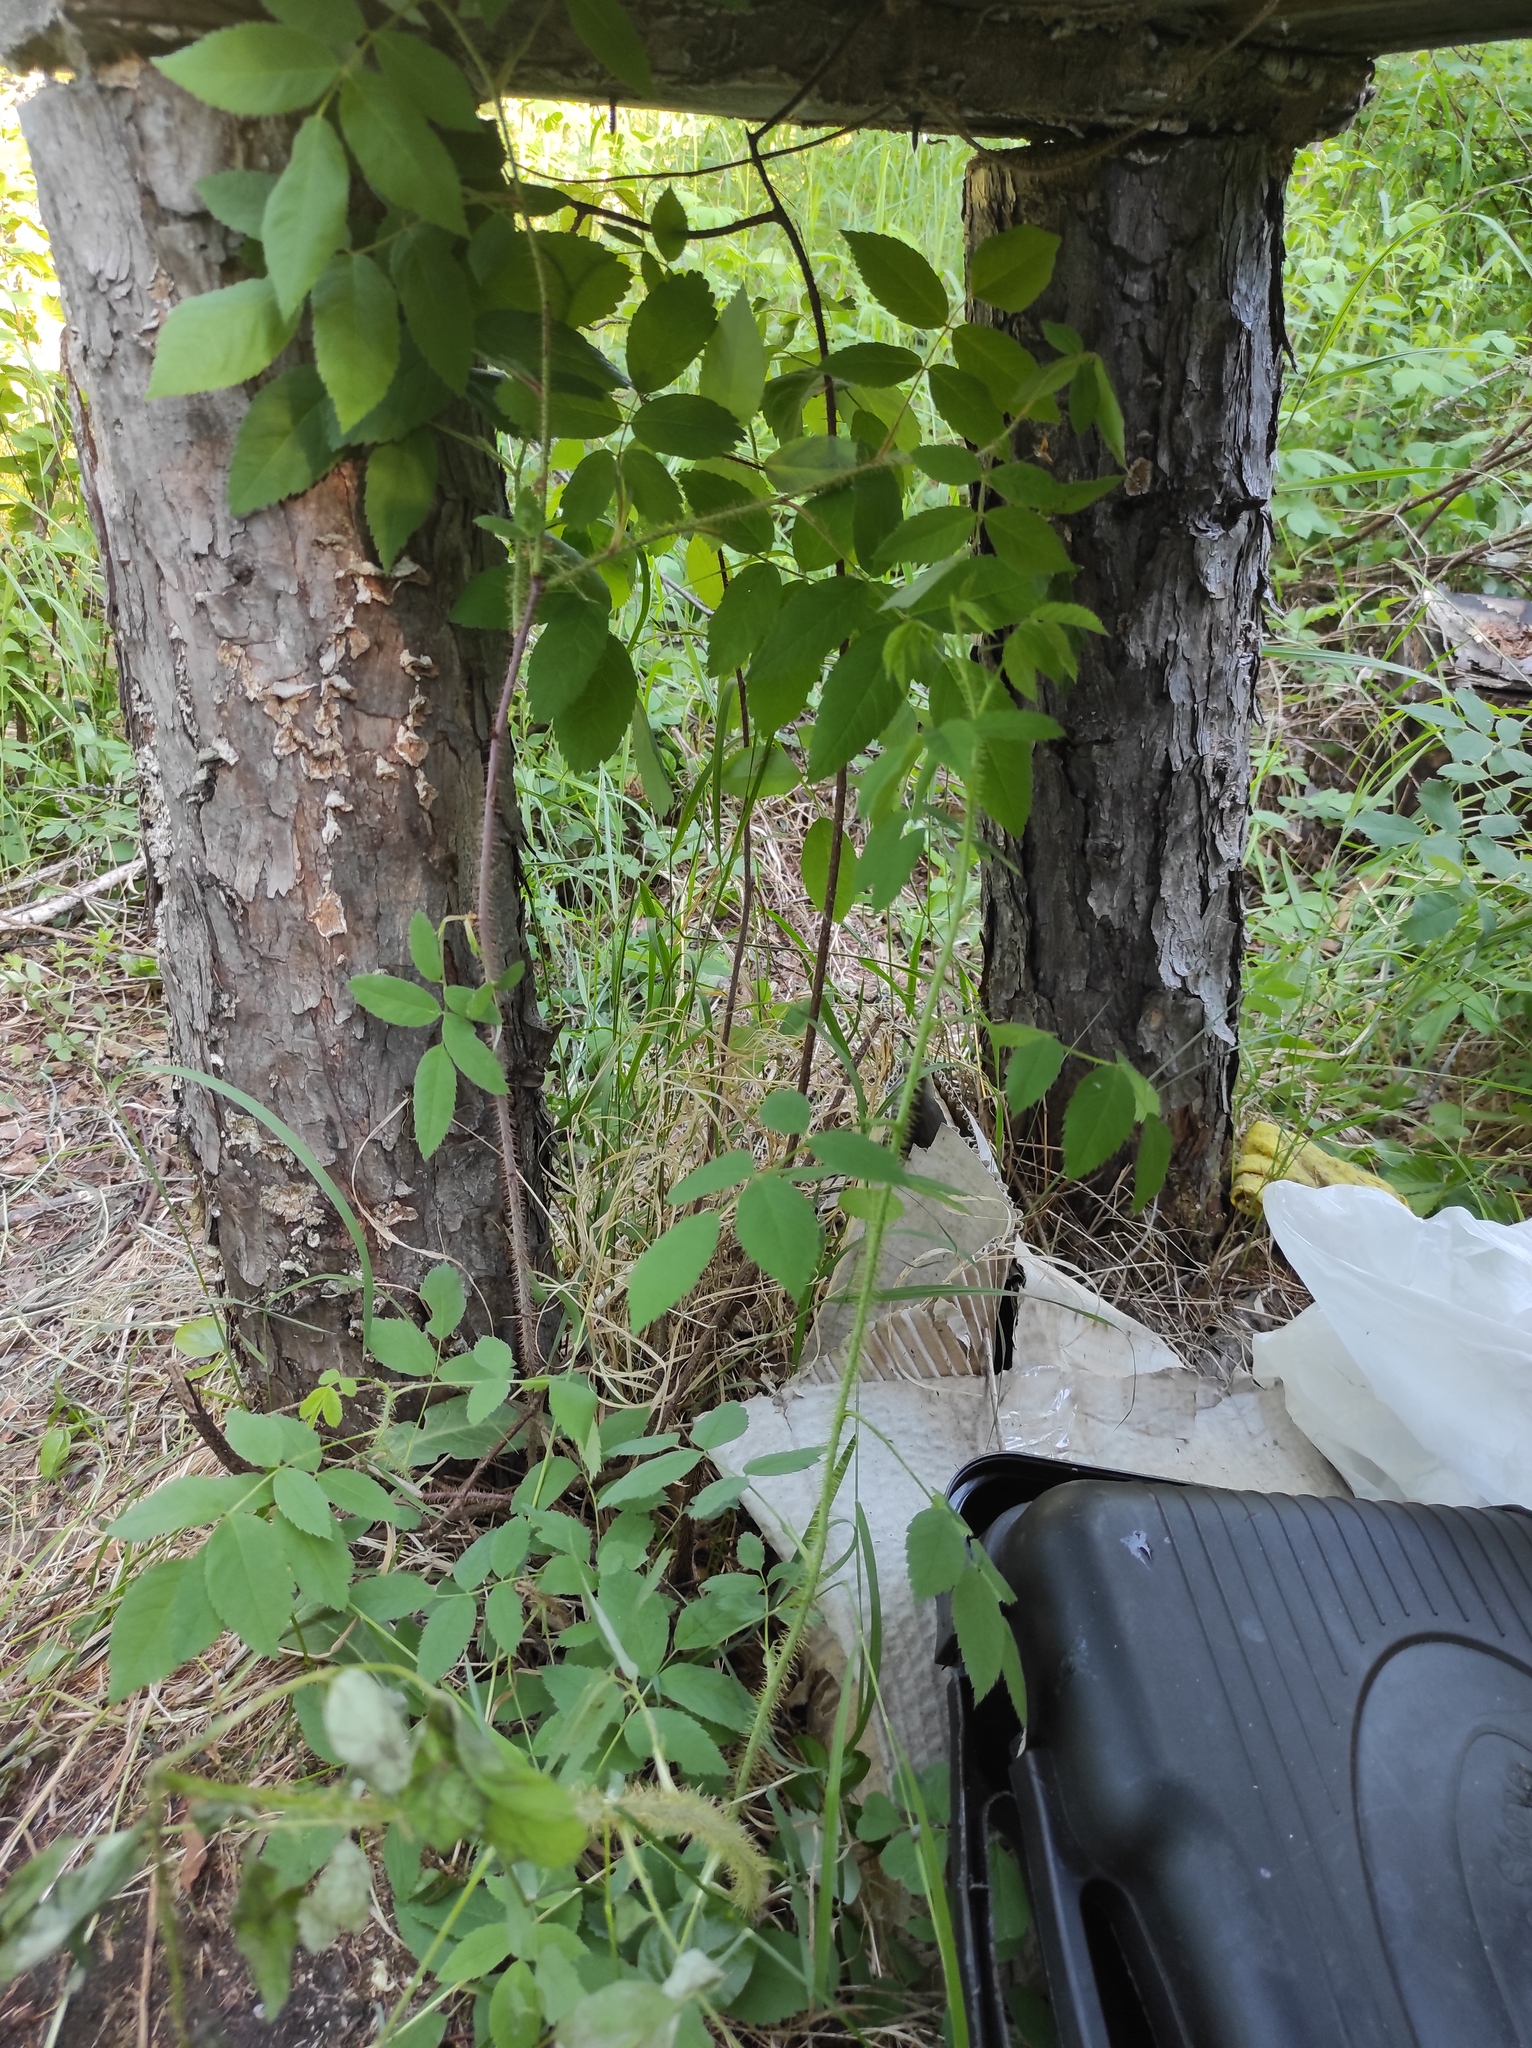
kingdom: Plantae
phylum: Tracheophyta
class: Magnoliopsida
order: Rosales
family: Rosaceae
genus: Rosa
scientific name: Rosa acicularis
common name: Prickly rose
